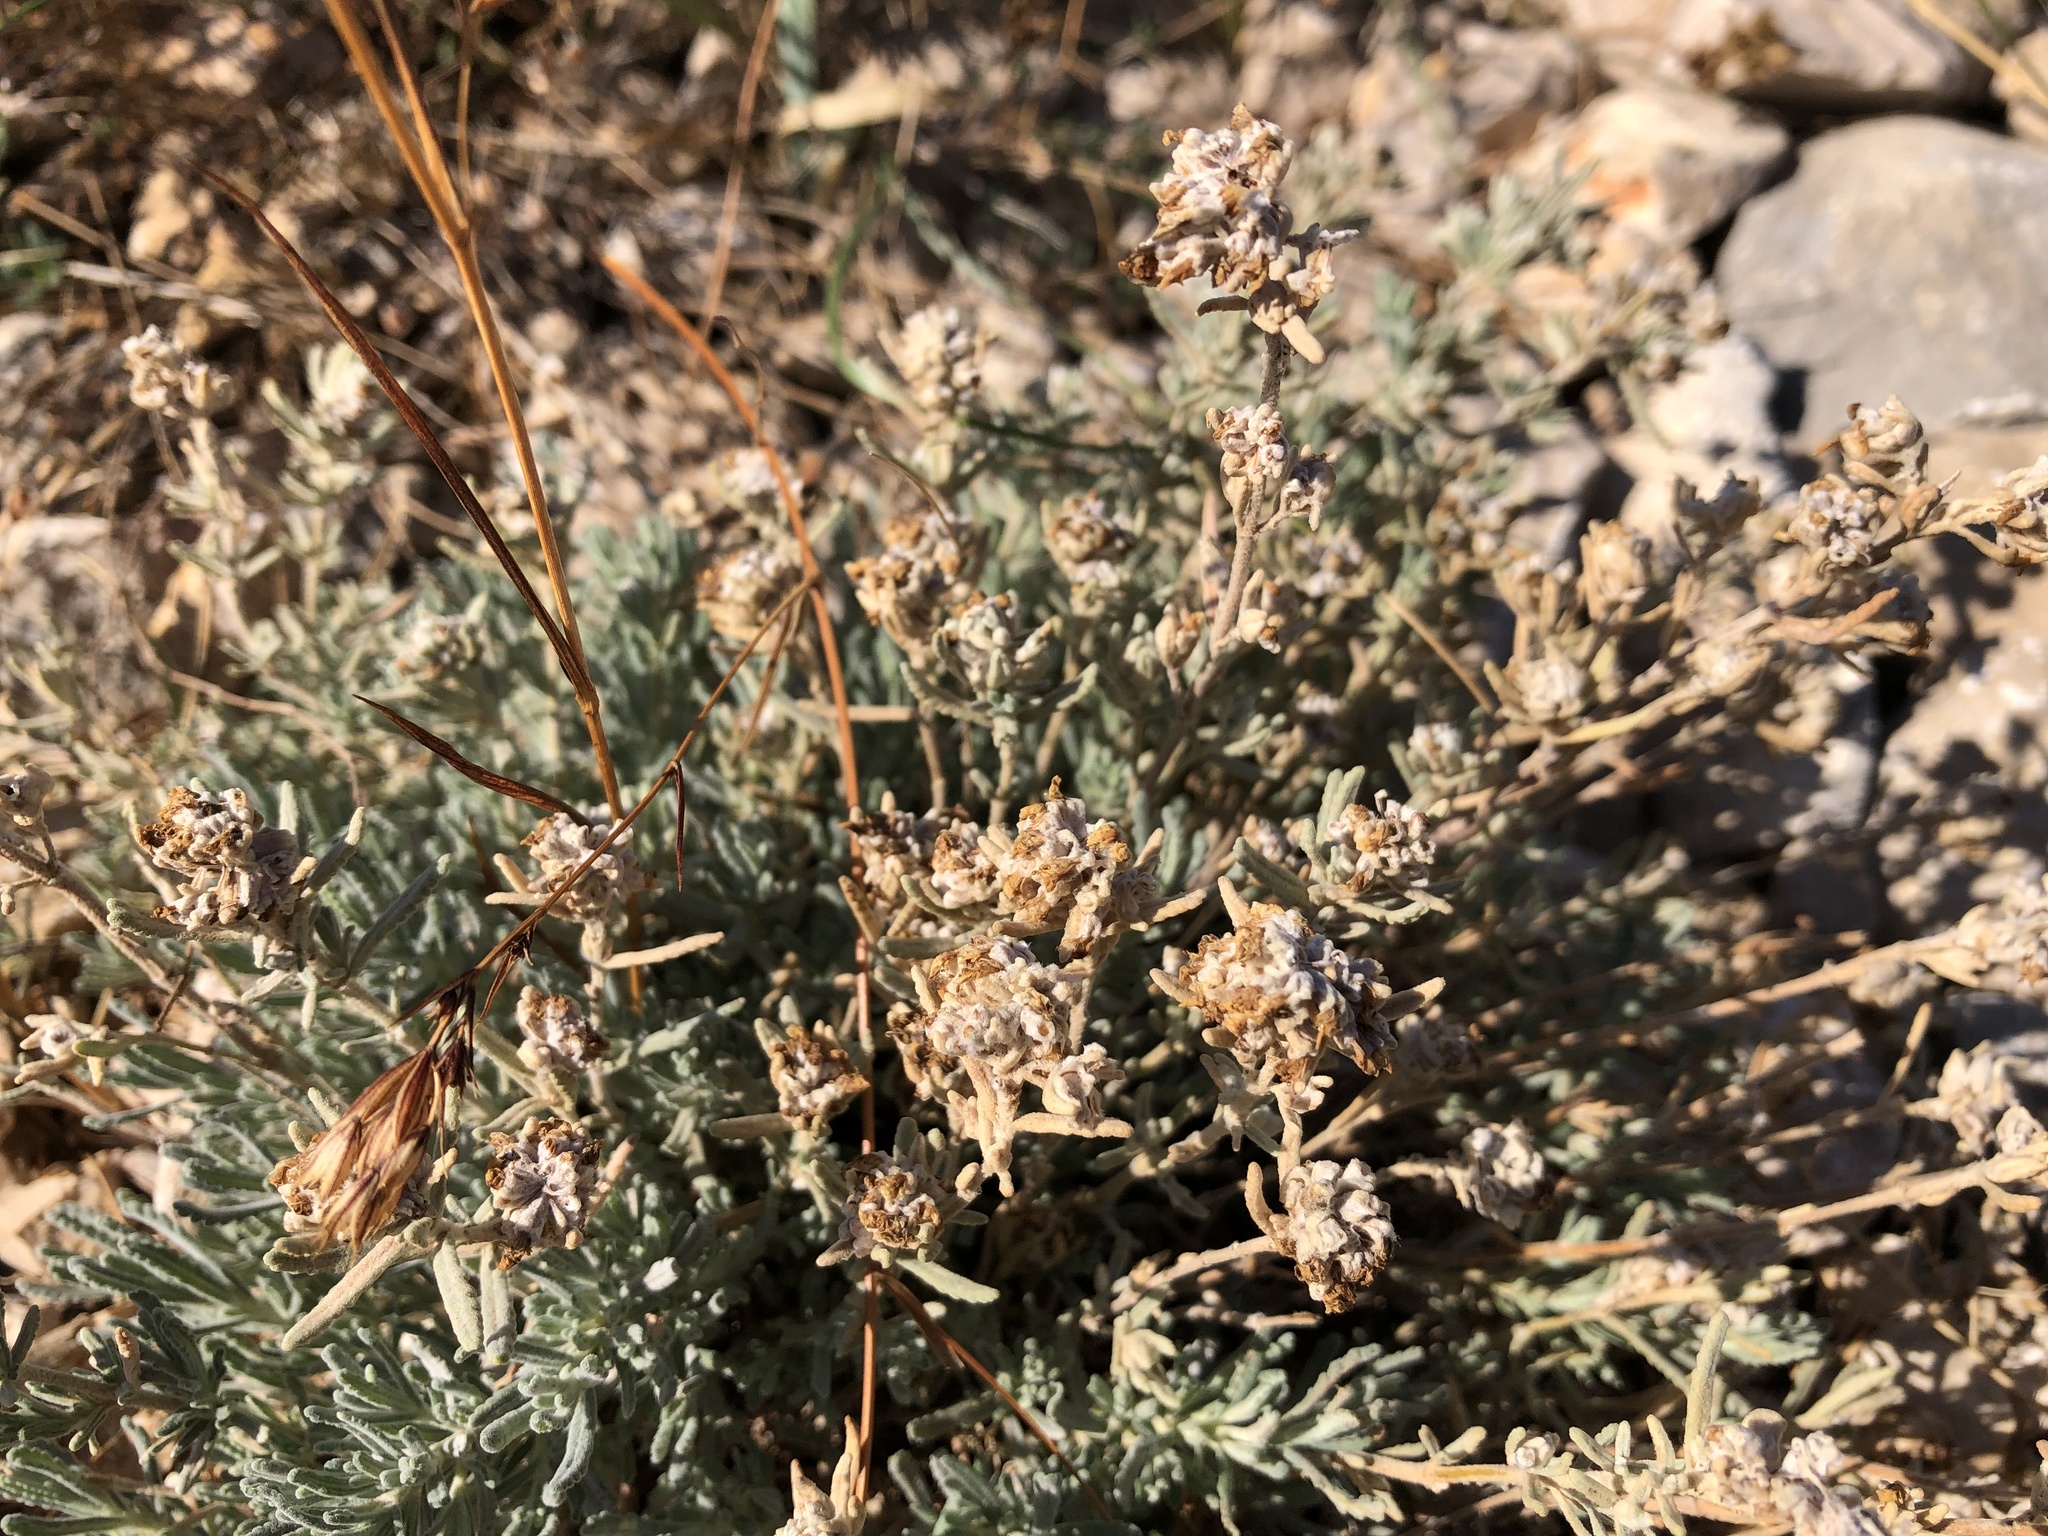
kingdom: Plantae
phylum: Tracheophyta
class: Magnoliopsida
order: Lamiales
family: Lamiaceae
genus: Teucrium
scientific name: Teucrium capitatum
